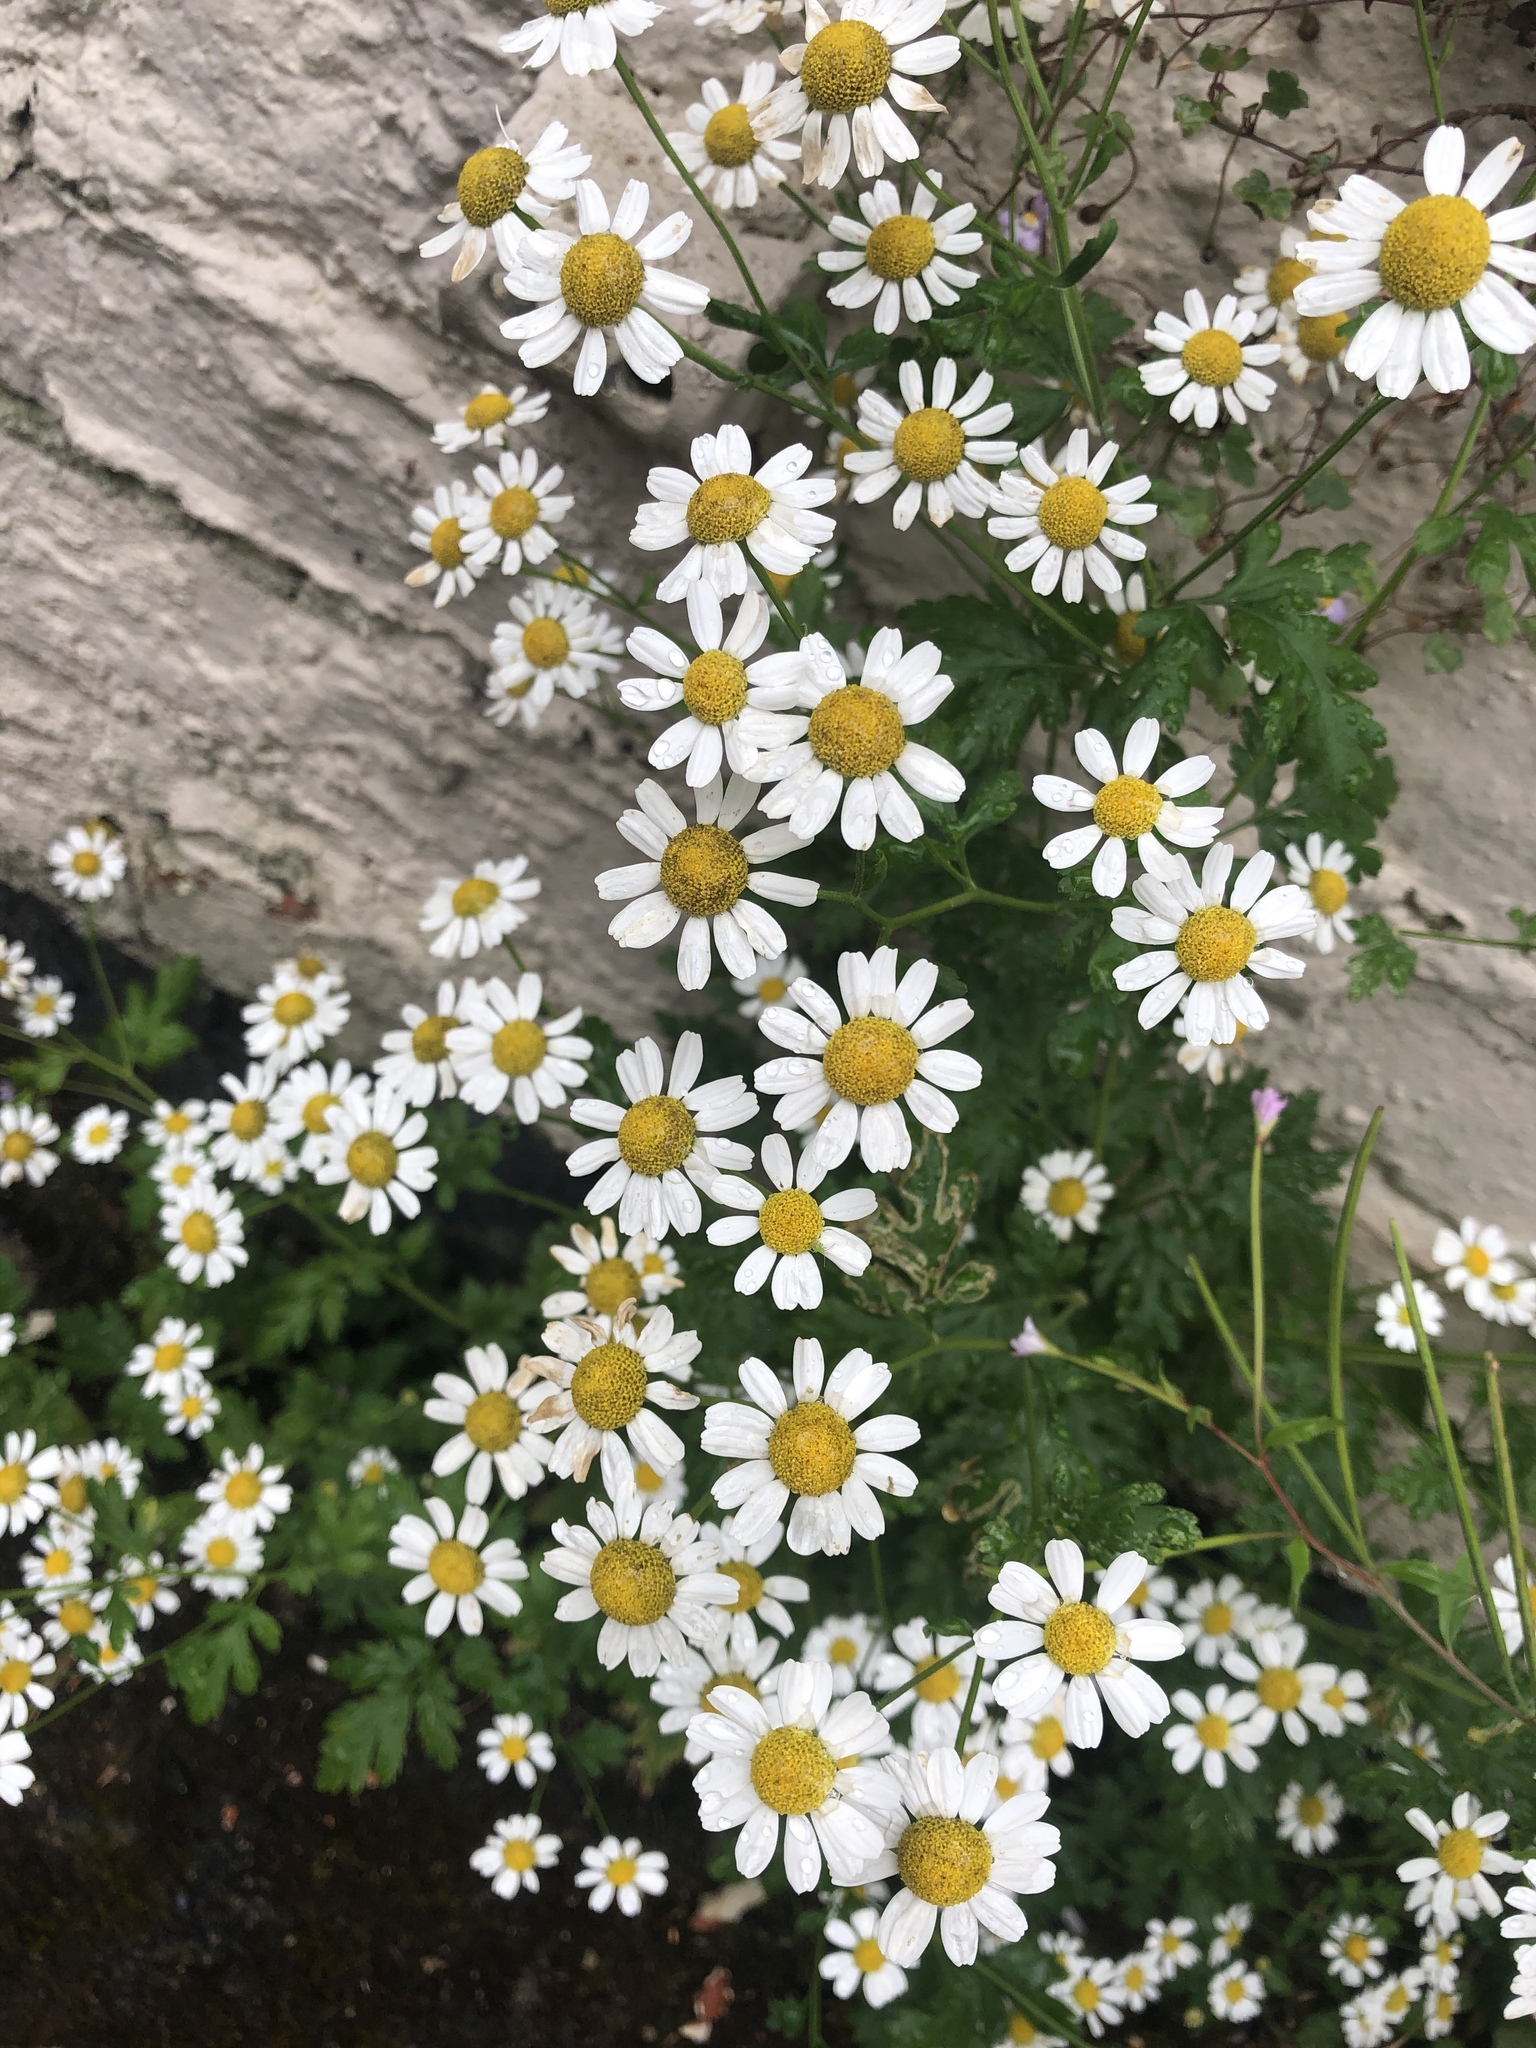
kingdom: Plantae
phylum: Tracheophyta
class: Magnoliopsida
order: Asterales
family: Asteraceae
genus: Tanacetum
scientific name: Tanacetum parthenium
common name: Feverfew
